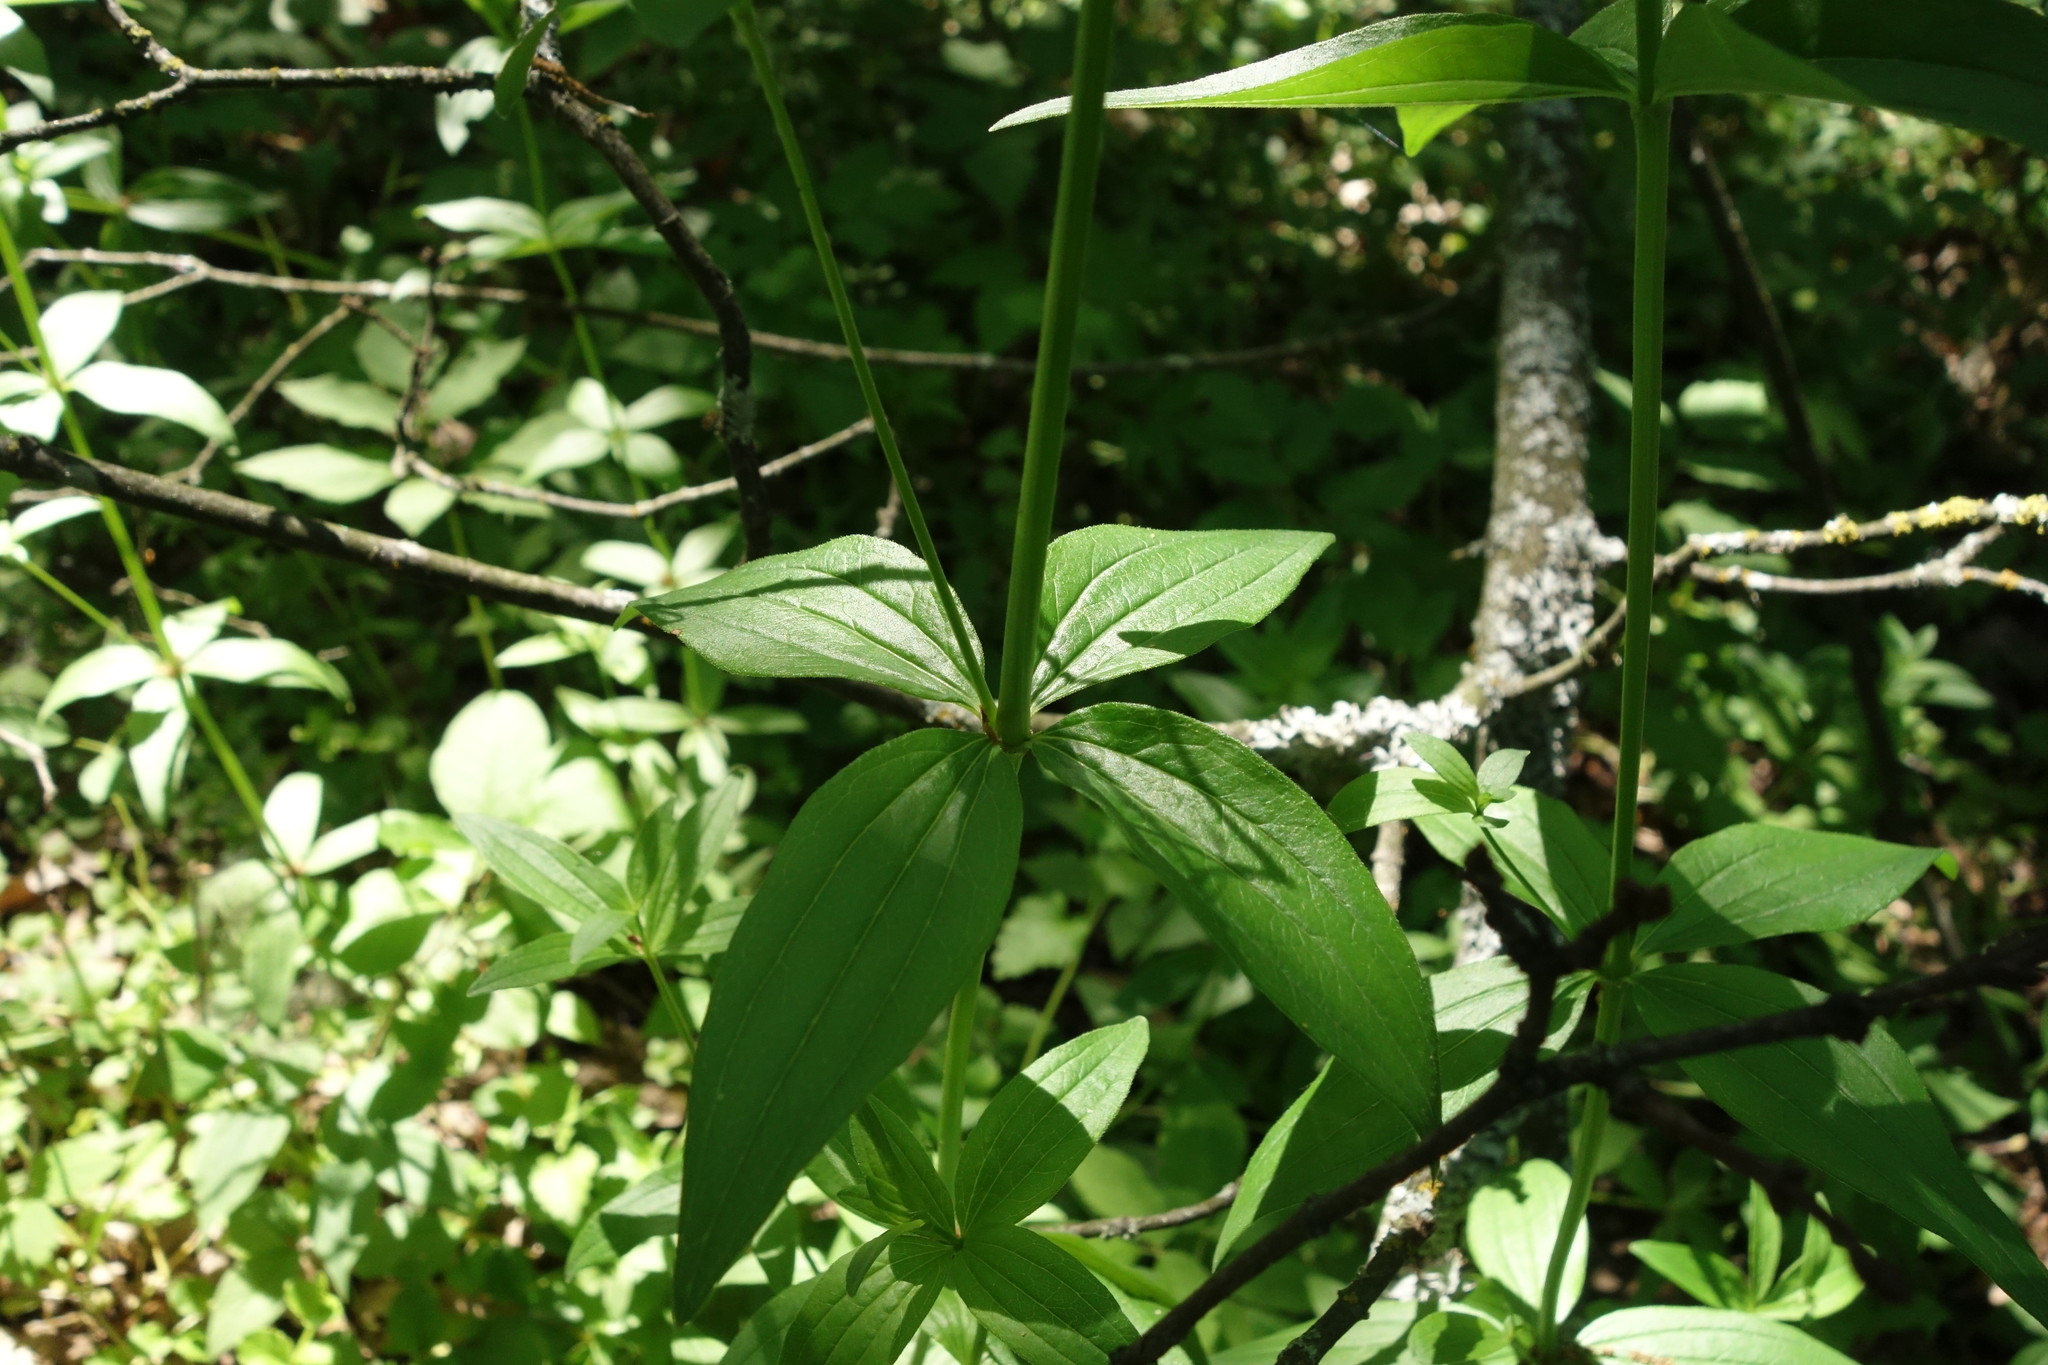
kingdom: Plantae
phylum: Tracheophyta
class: Magnoliopsida
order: Gentianales
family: Rubiaceae
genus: Galium
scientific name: Galium rubioides
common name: European bedstraw
